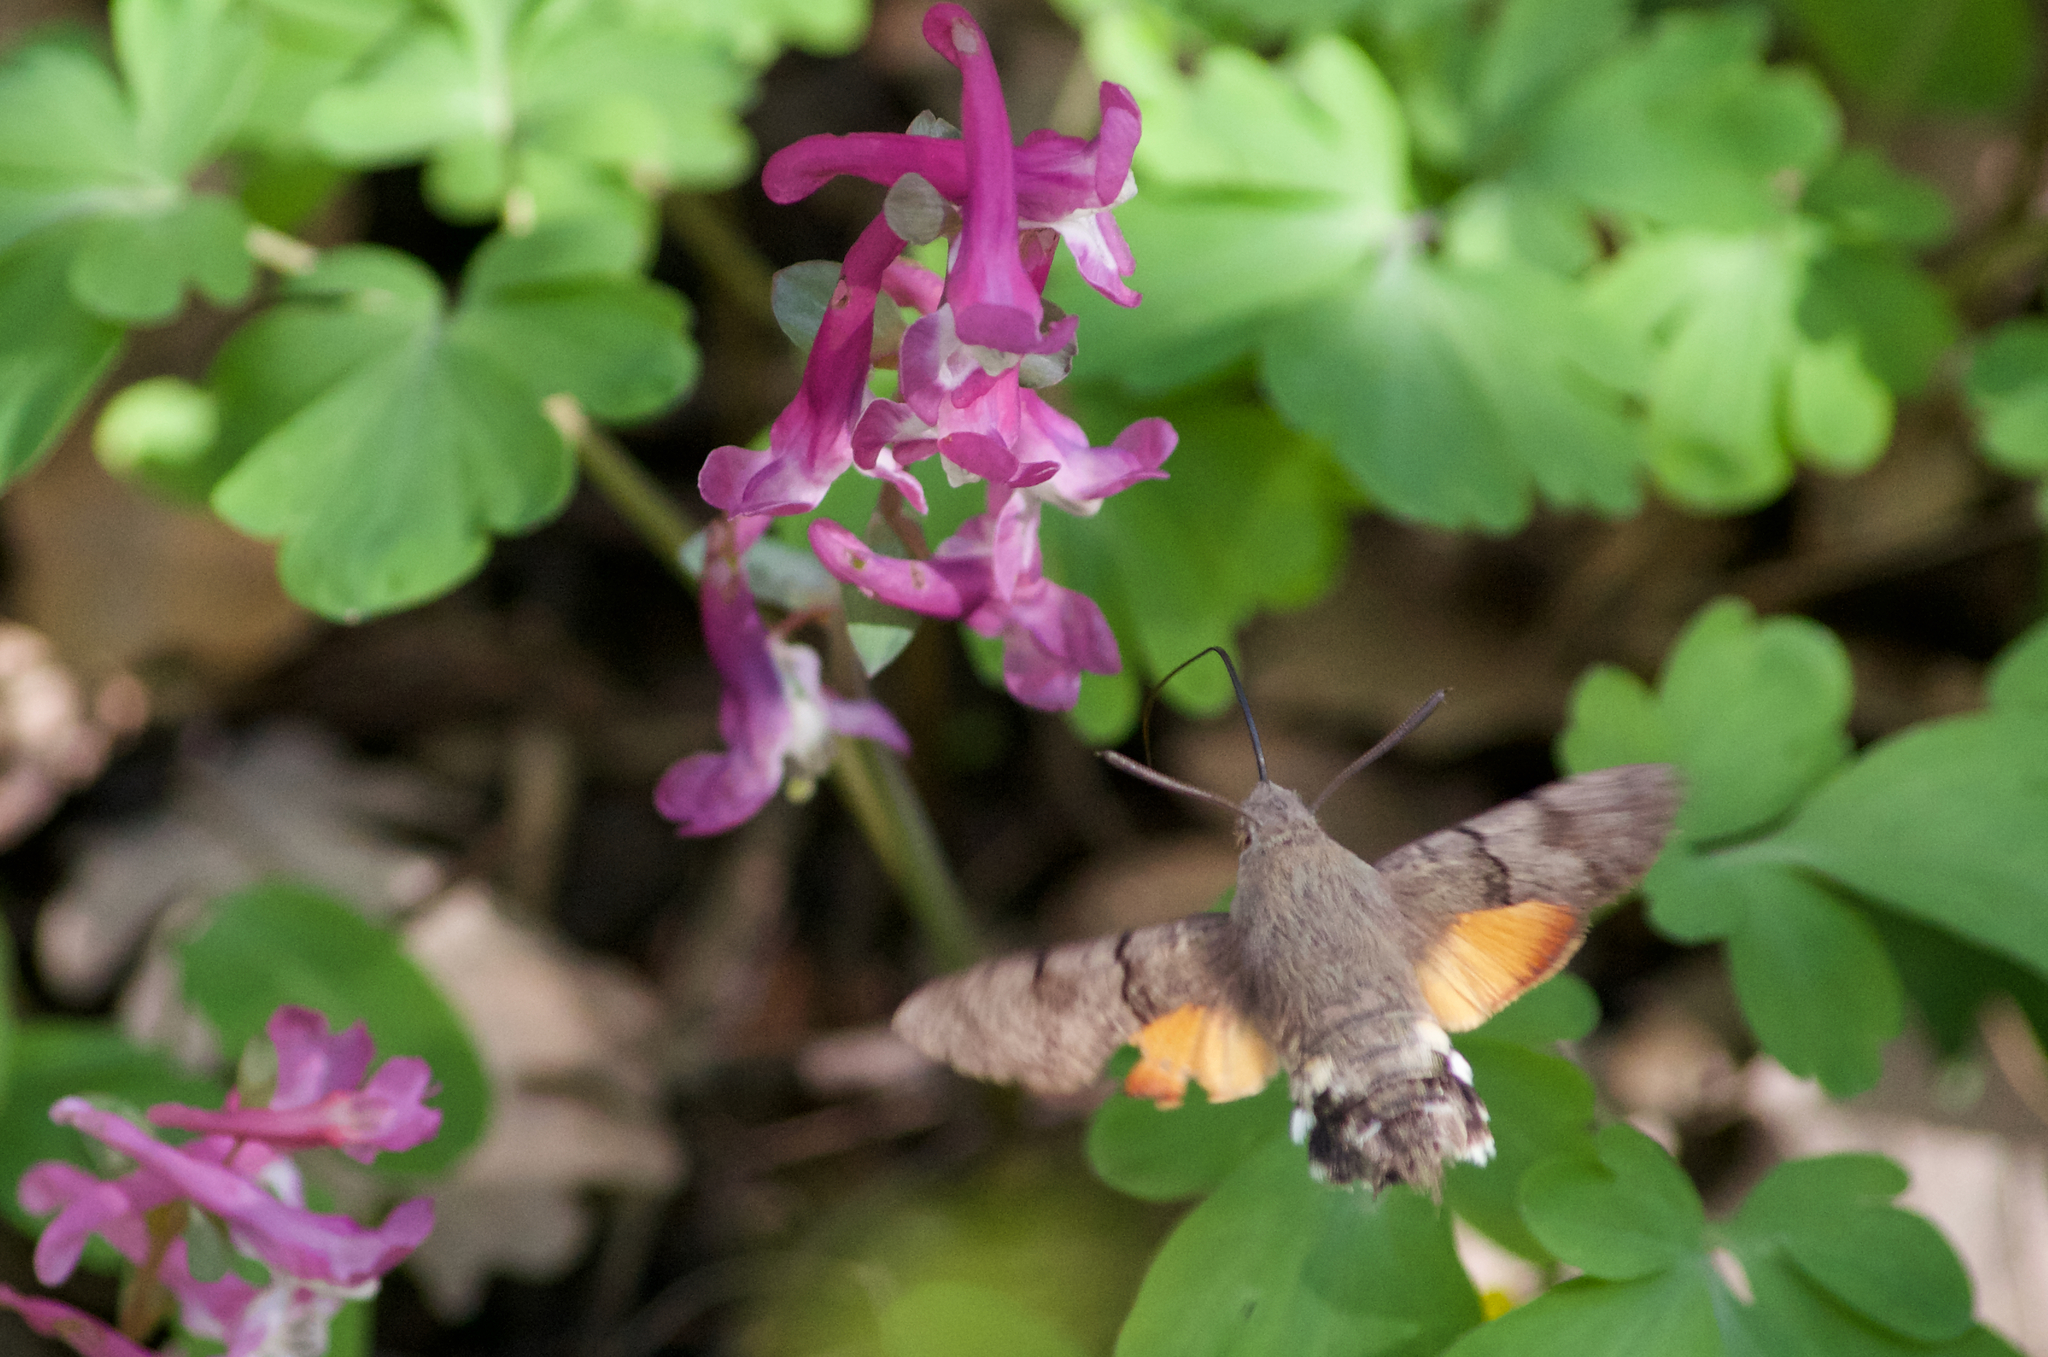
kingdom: Animalia
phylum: Arthropoda
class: Insecta
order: Lepidoptera
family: Sphingidae
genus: Macroglossum
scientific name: Macroglossum stellatarum
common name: Humming-bird hawk-moth
